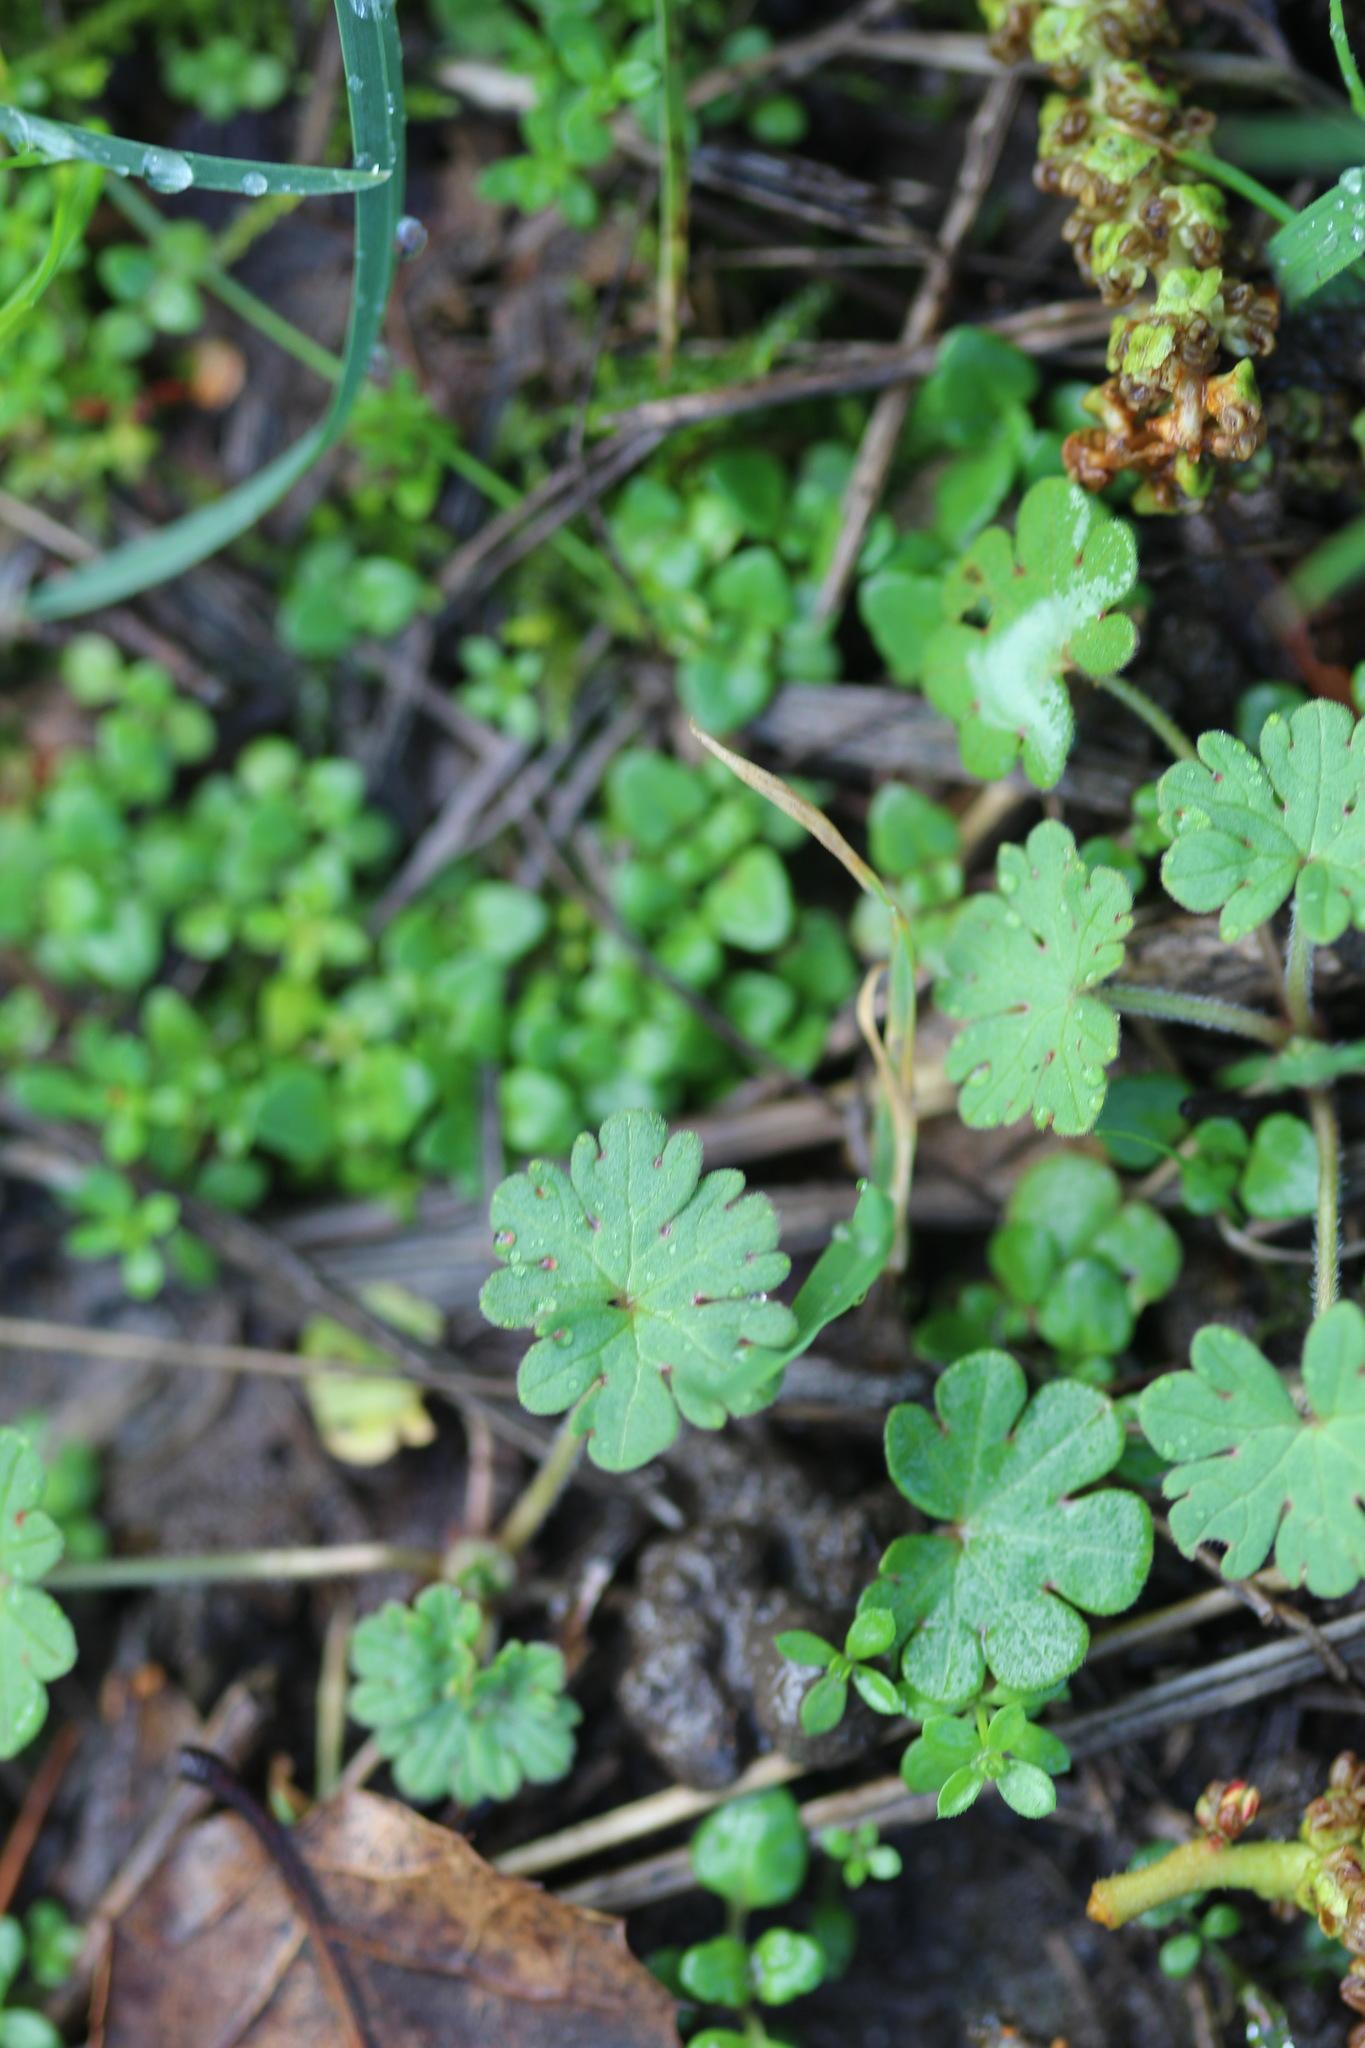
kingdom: Plantae
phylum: Tracheophyta
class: Magnoliopsida
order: Geraniales
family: Geraniaceae
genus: Geranium
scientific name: Geranium
